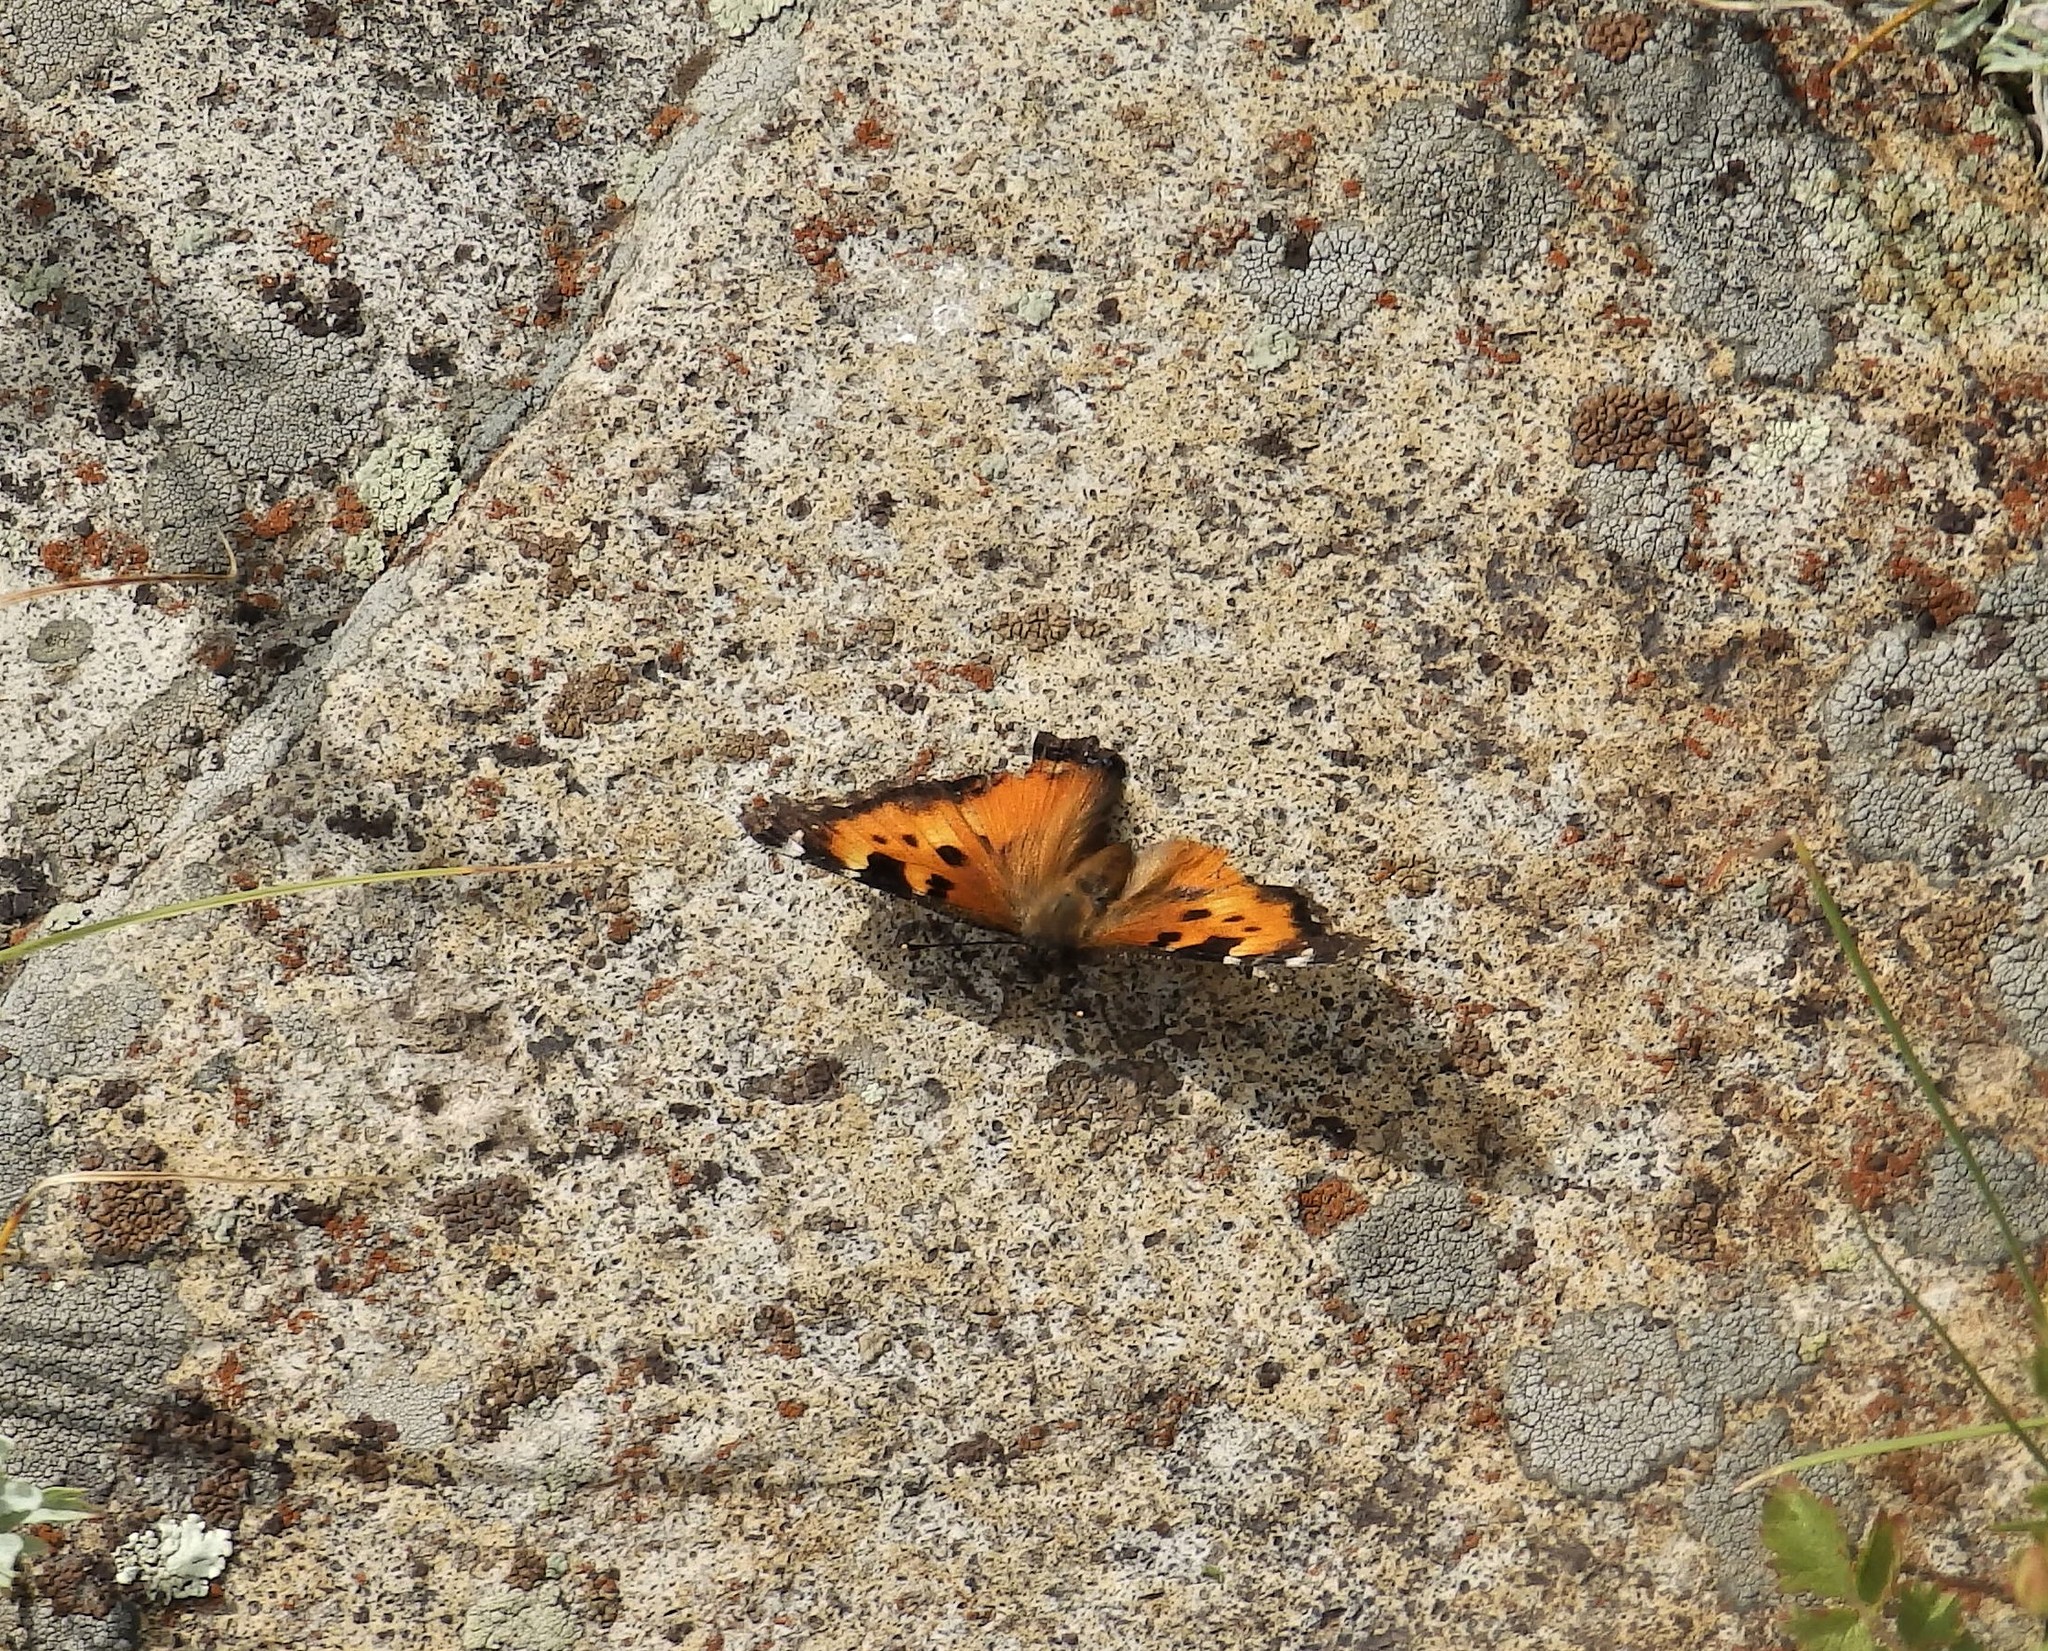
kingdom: Animalia
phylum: Arthropoda
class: Insecta
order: Lepidoptera
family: Nymphalidae
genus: Nymphalis
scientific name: Nymphalis californica
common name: California tortoiseshell
